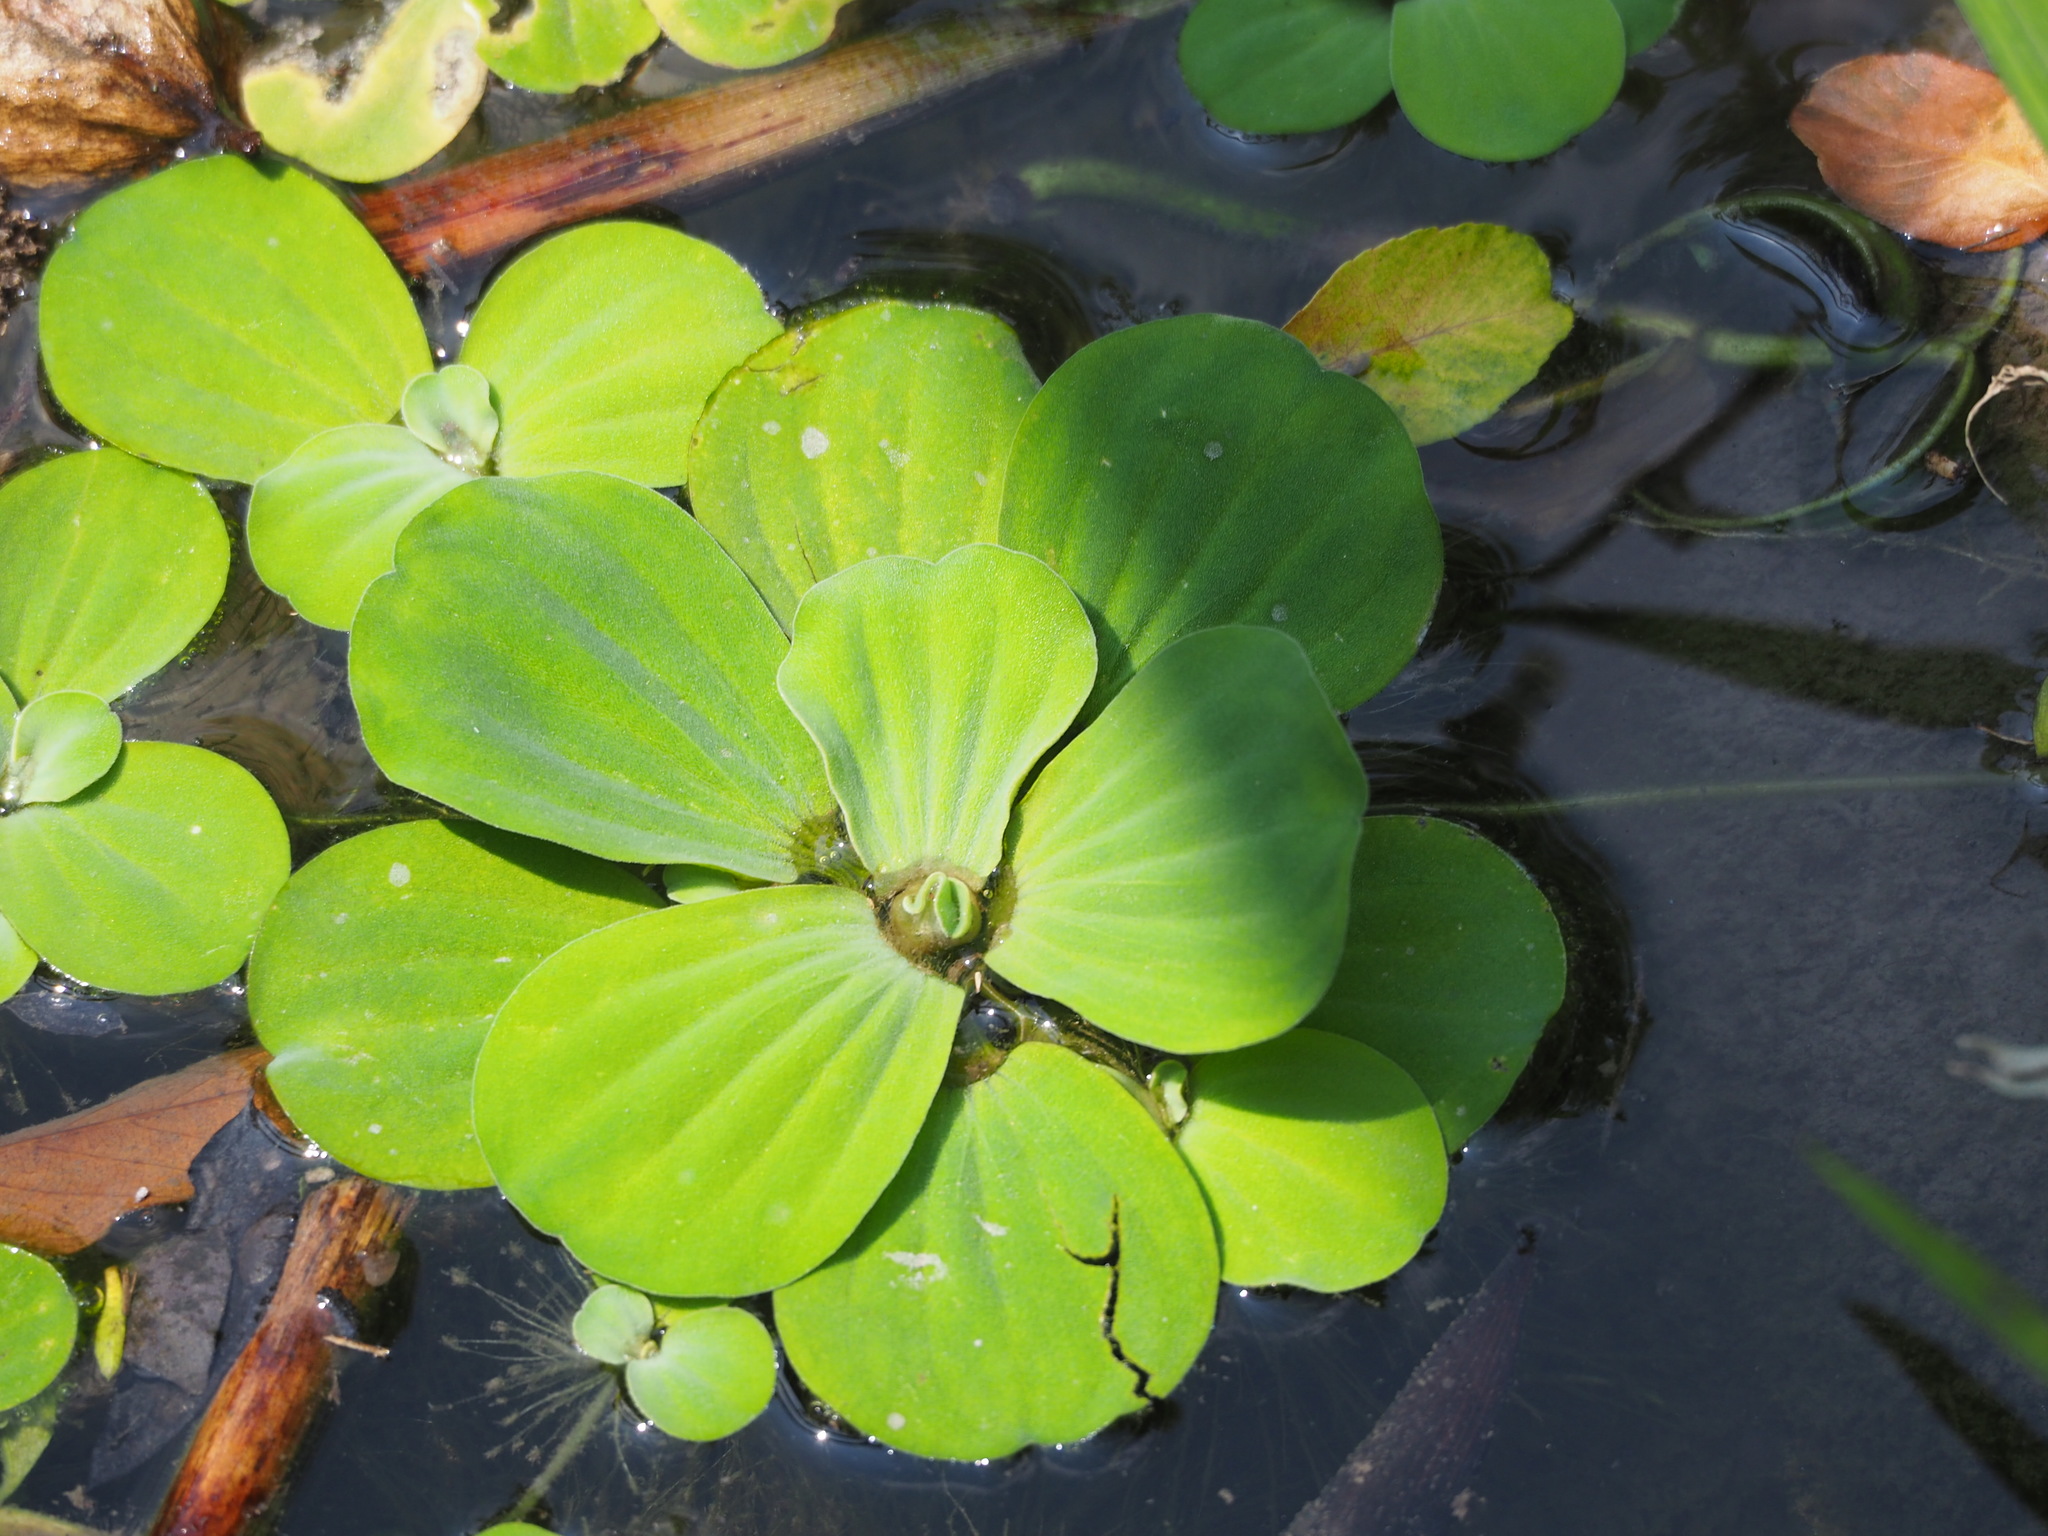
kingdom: Plantae
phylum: Tracheophyta
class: Liliopsida
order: Alismatales
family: Araceae
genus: Pistia
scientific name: Pistia stratiotes
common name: Water lettuce
